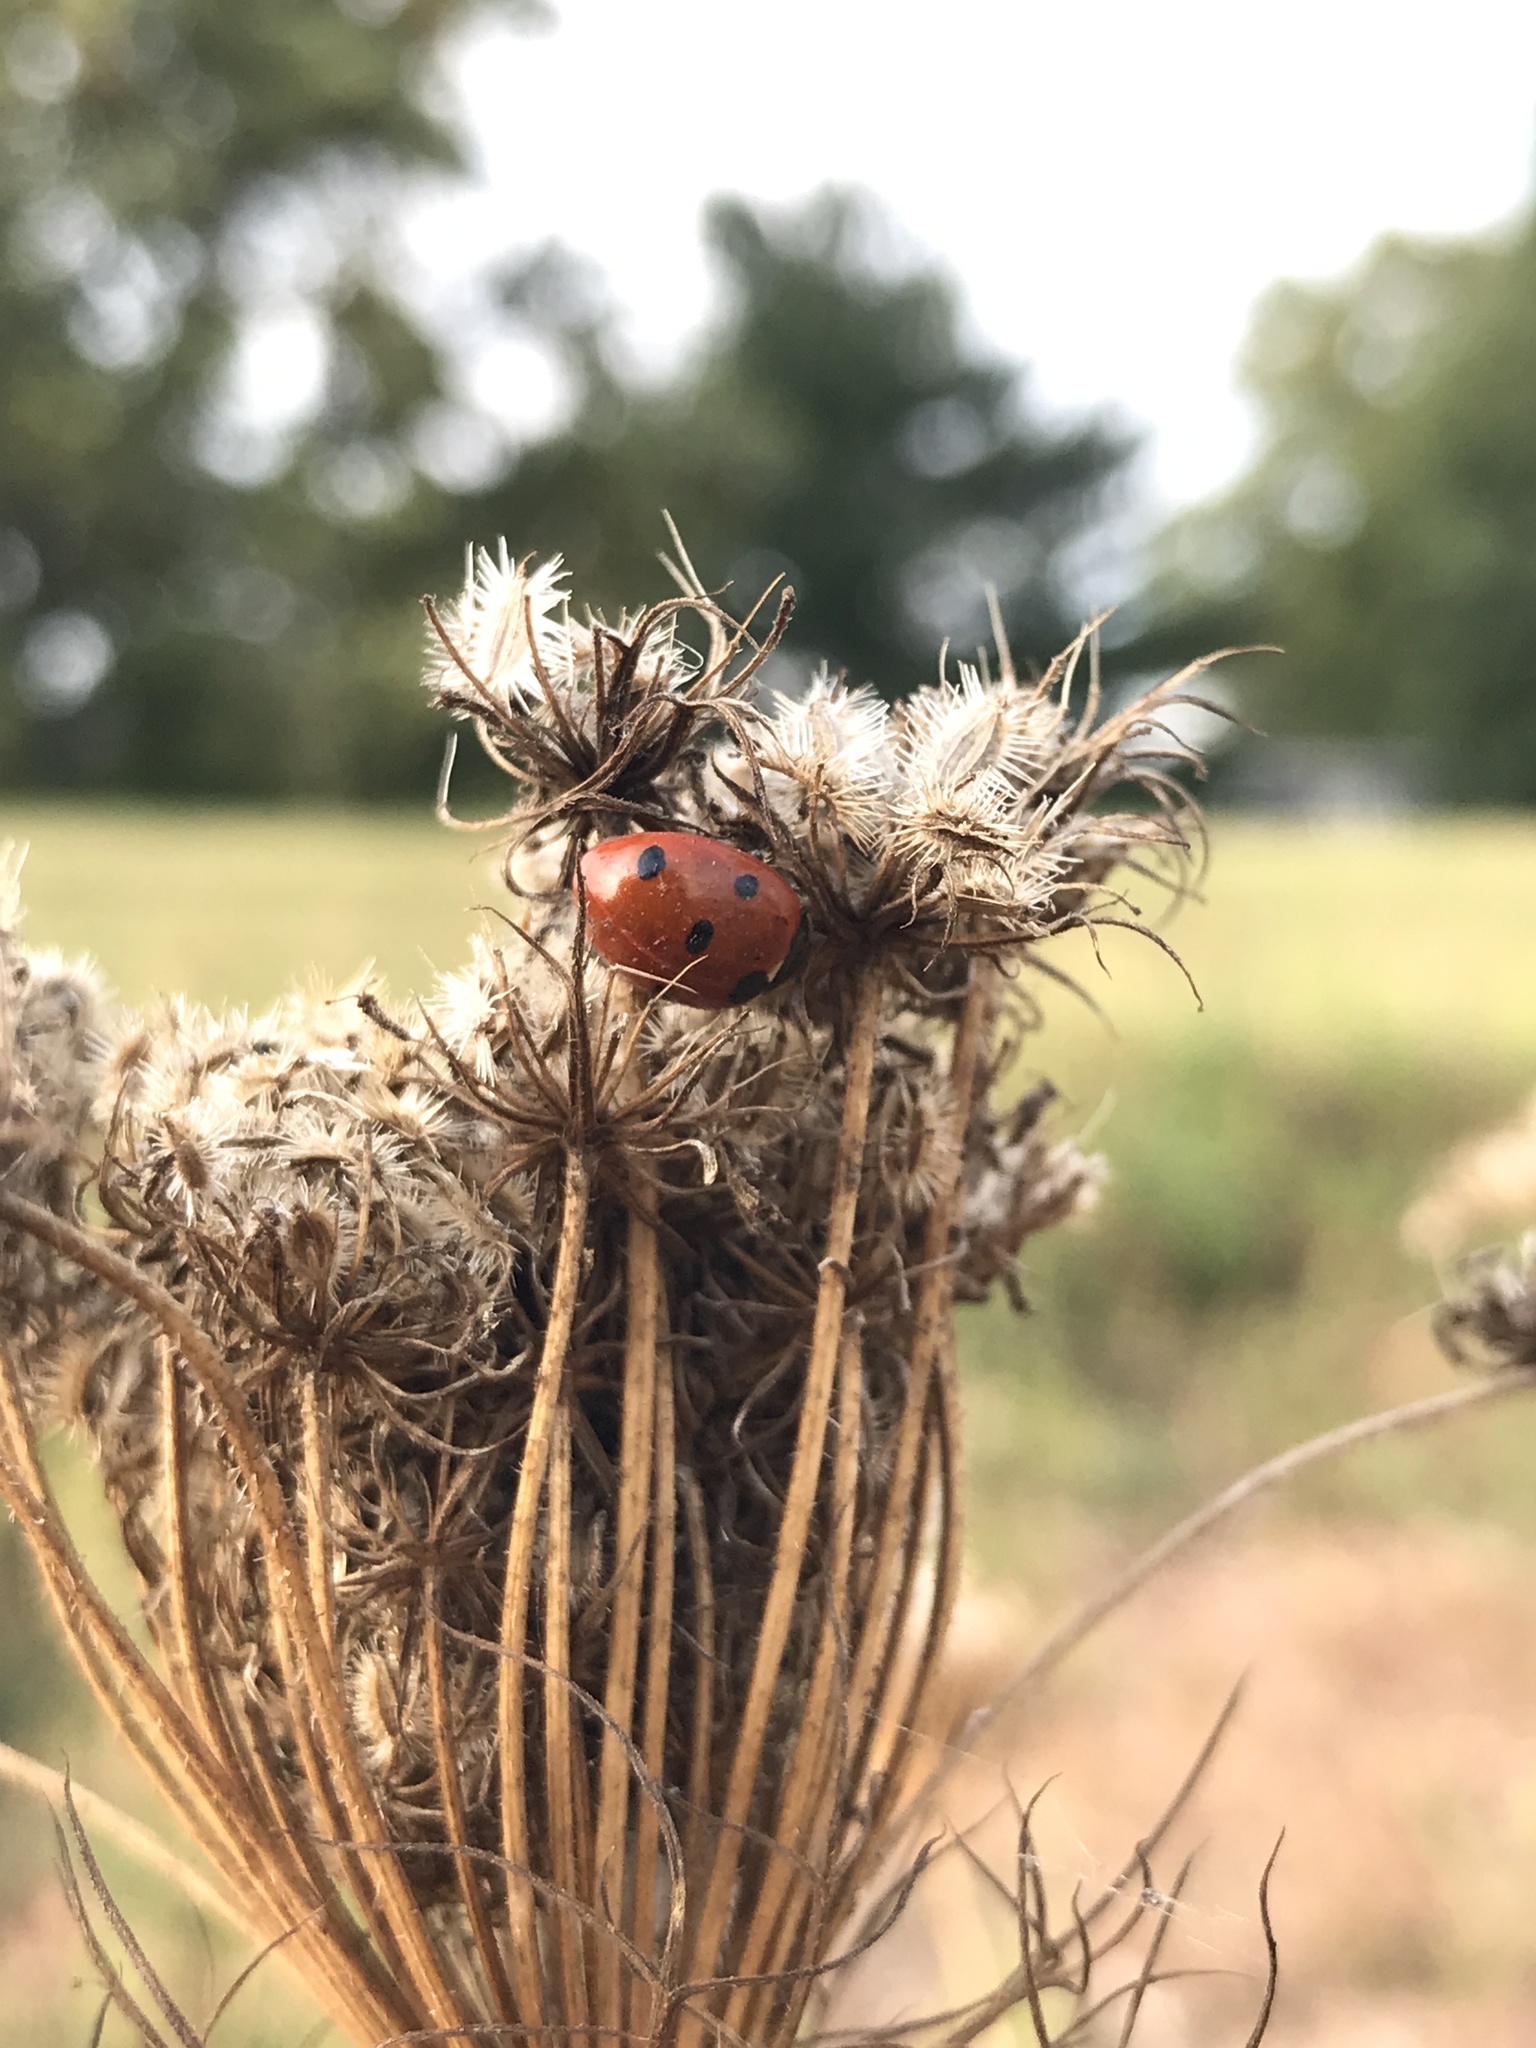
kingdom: Animalia
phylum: Arthropoda
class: Insecta
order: Coleoptera
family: Coccinellidae
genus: Coccinella
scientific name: Coccinella septempunctata
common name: Sevenspotted lady beetle
